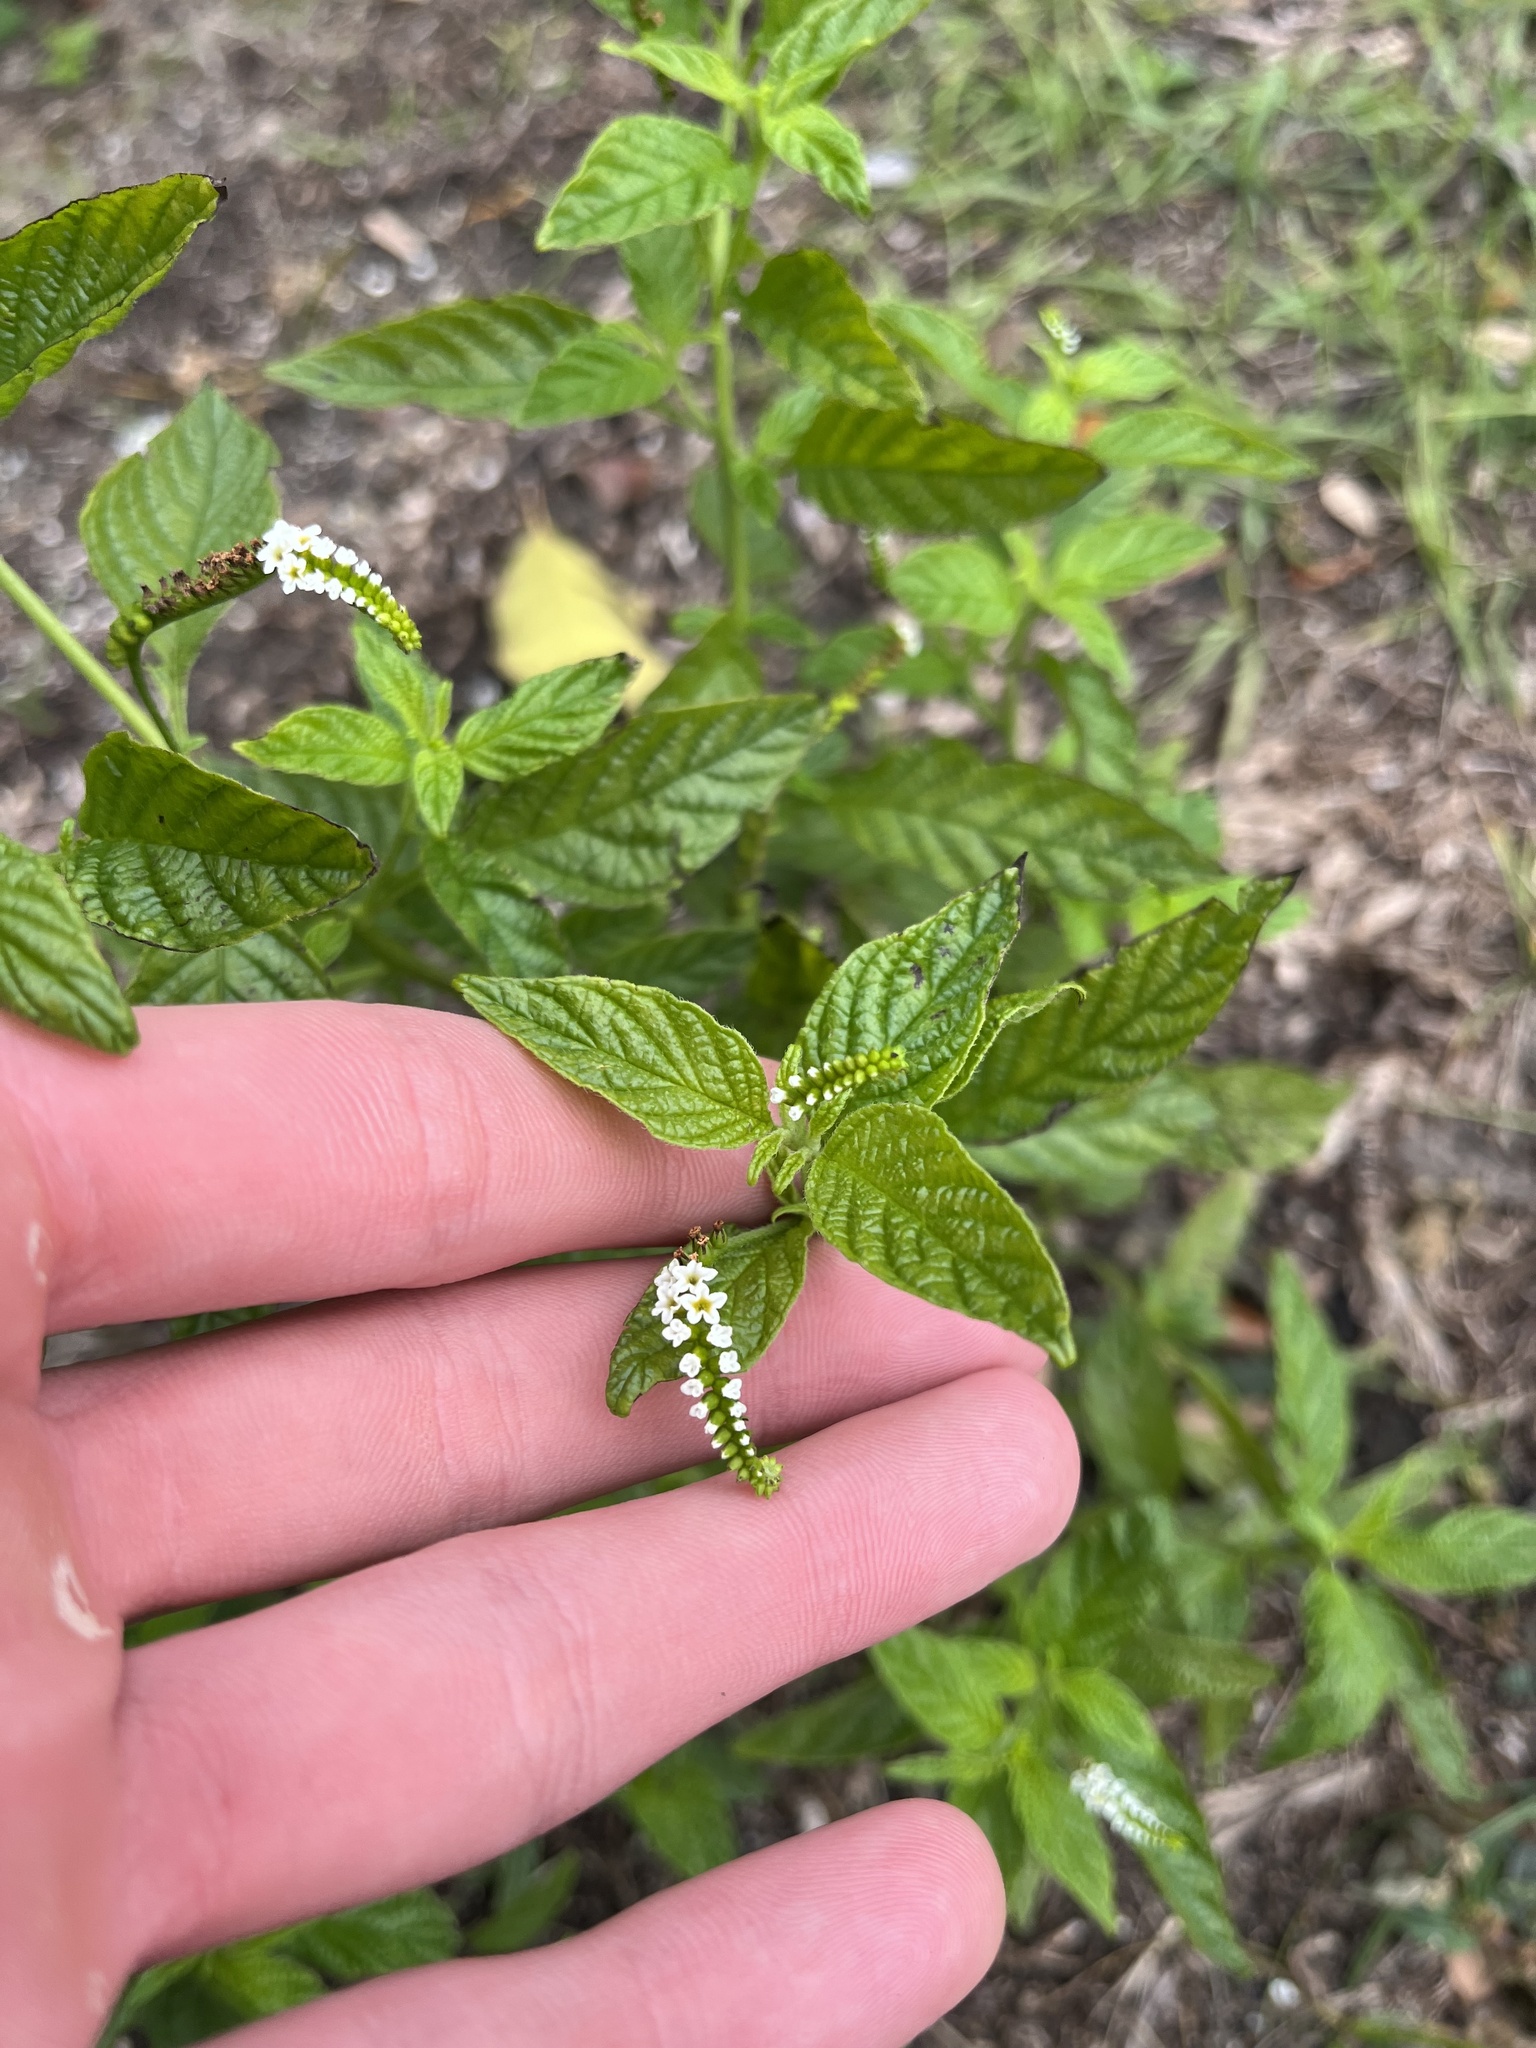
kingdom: Plantae
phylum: Tracheophyta
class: Magnoliopsida
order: Boraginales
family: Heliotropiaceae
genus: Heliotropium
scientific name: Heliotropium angiospermum
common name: Eye bright
